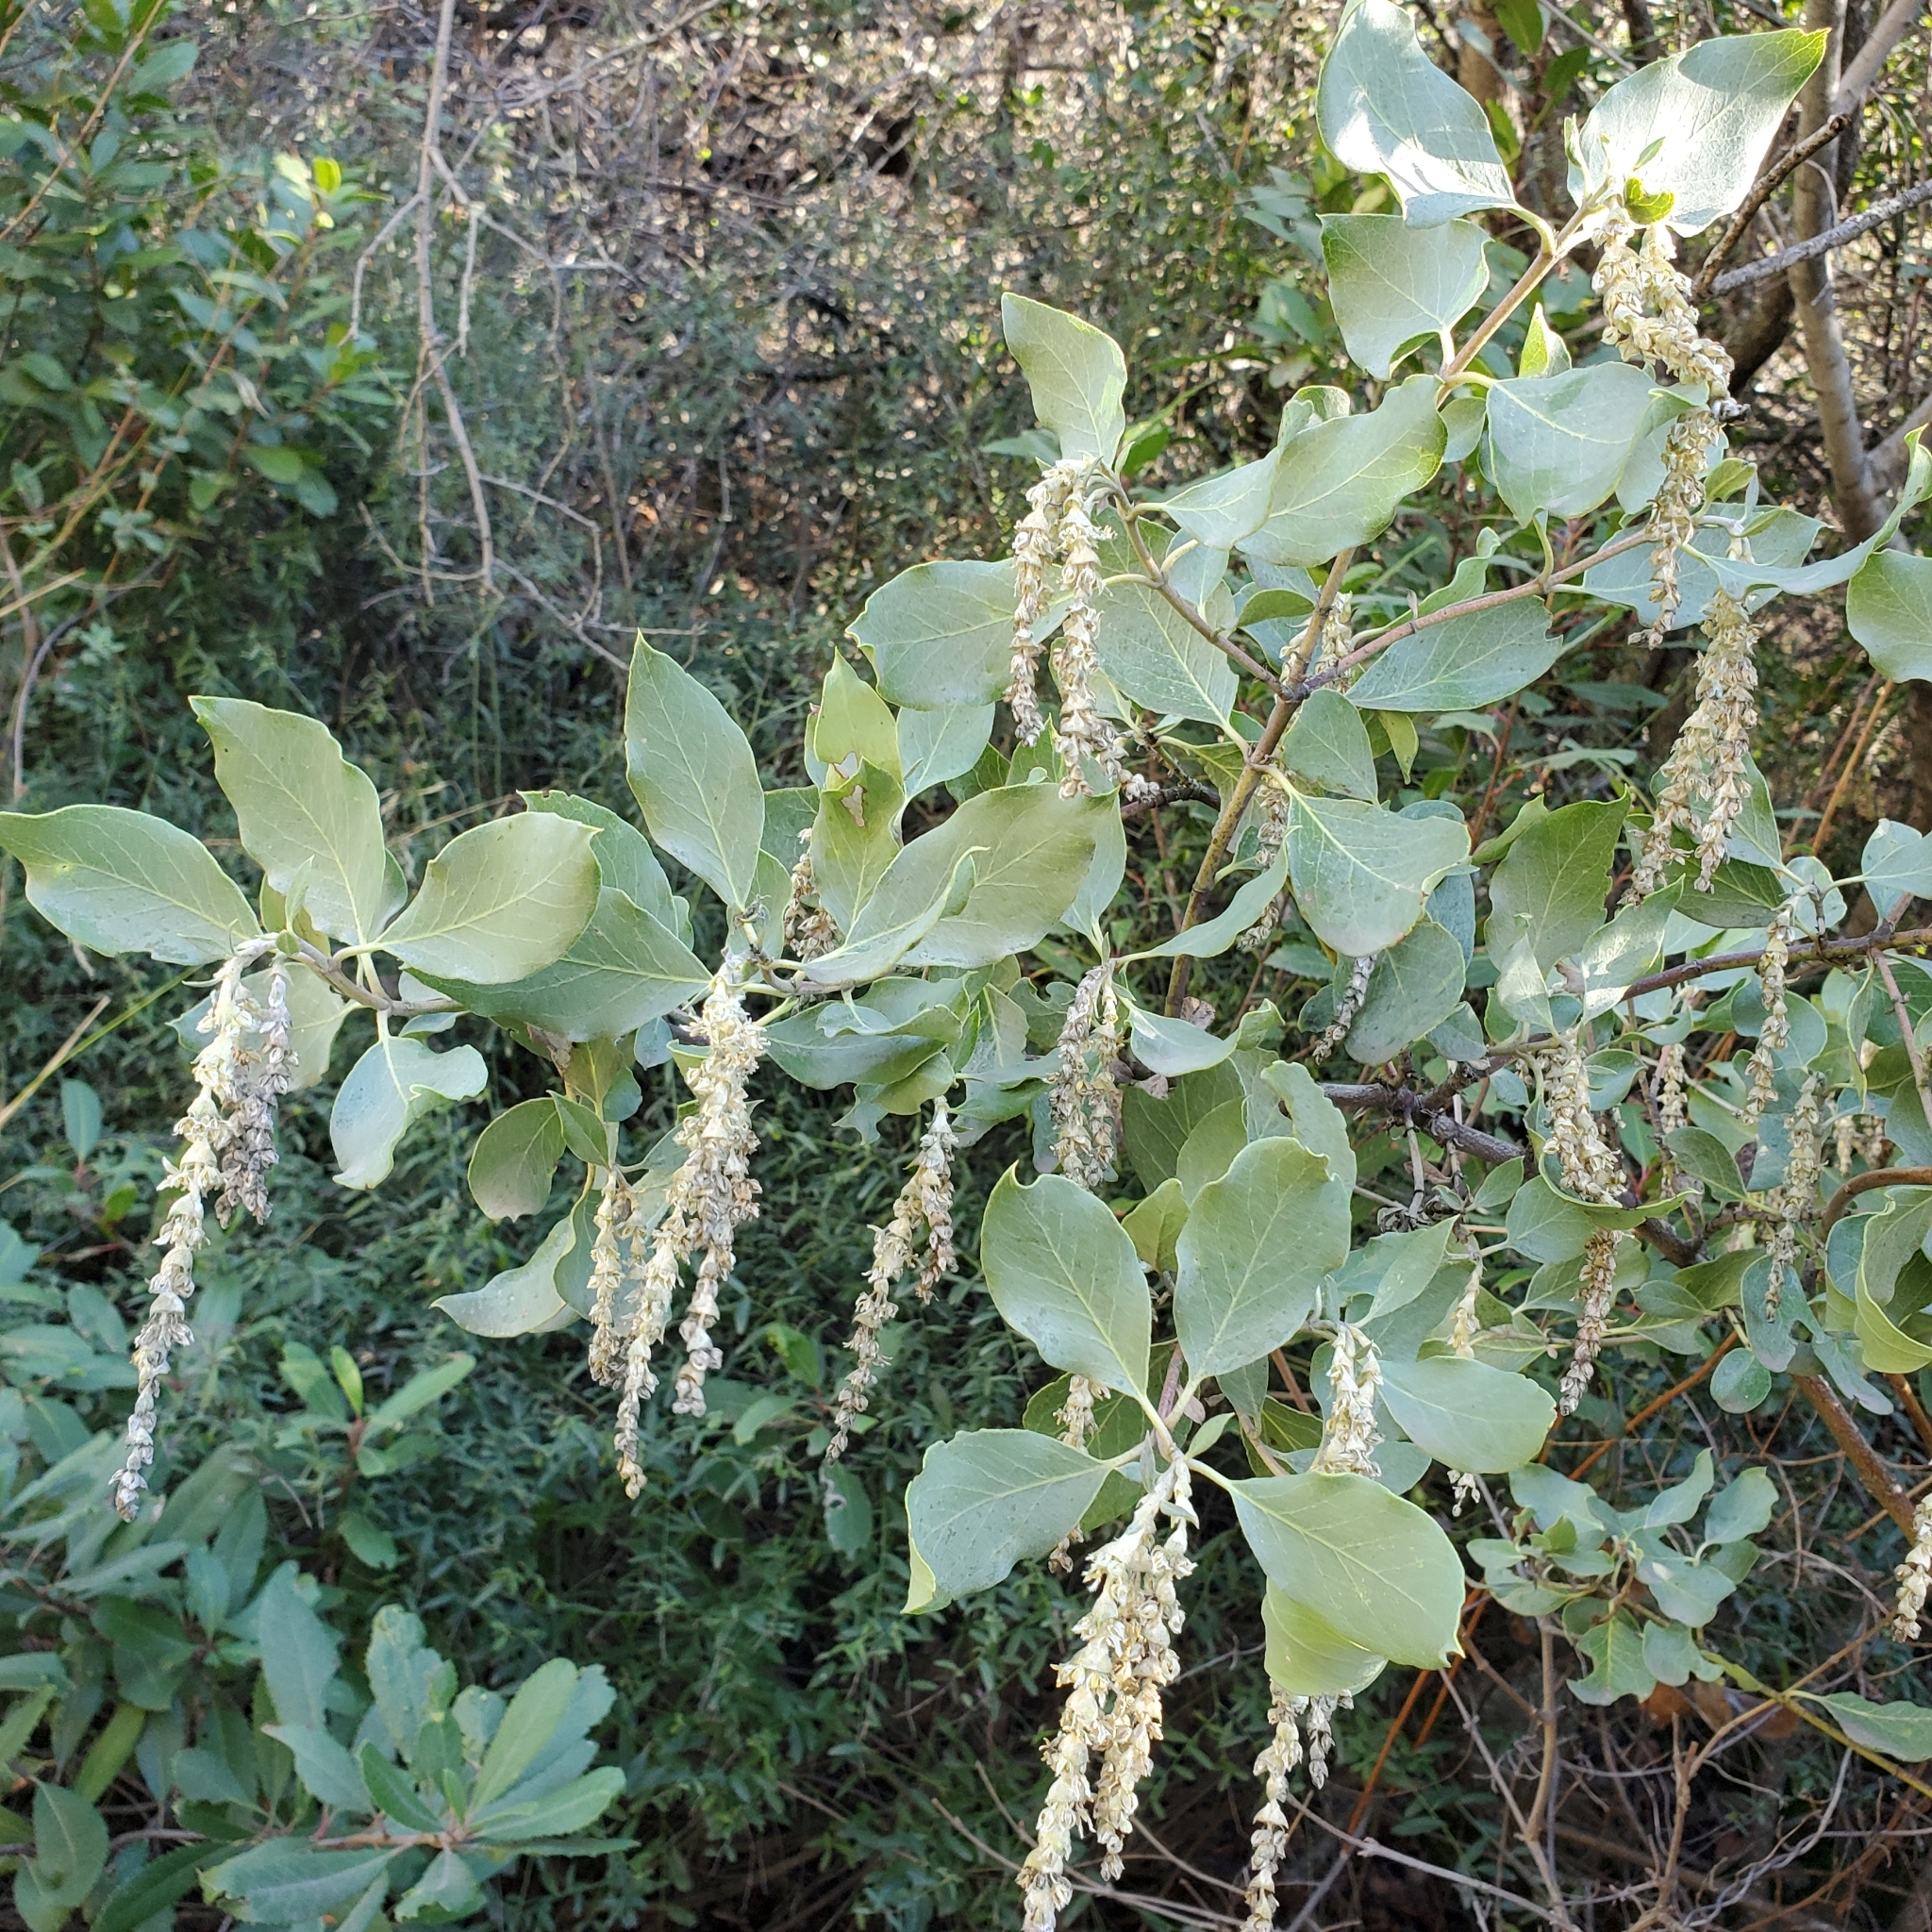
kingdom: Plantae
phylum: Tracheophyta
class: Magnoliopsida
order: Garryales
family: Garryaceae
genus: Garrya
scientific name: Garrya flavescens
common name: Ashy silk-tassel
